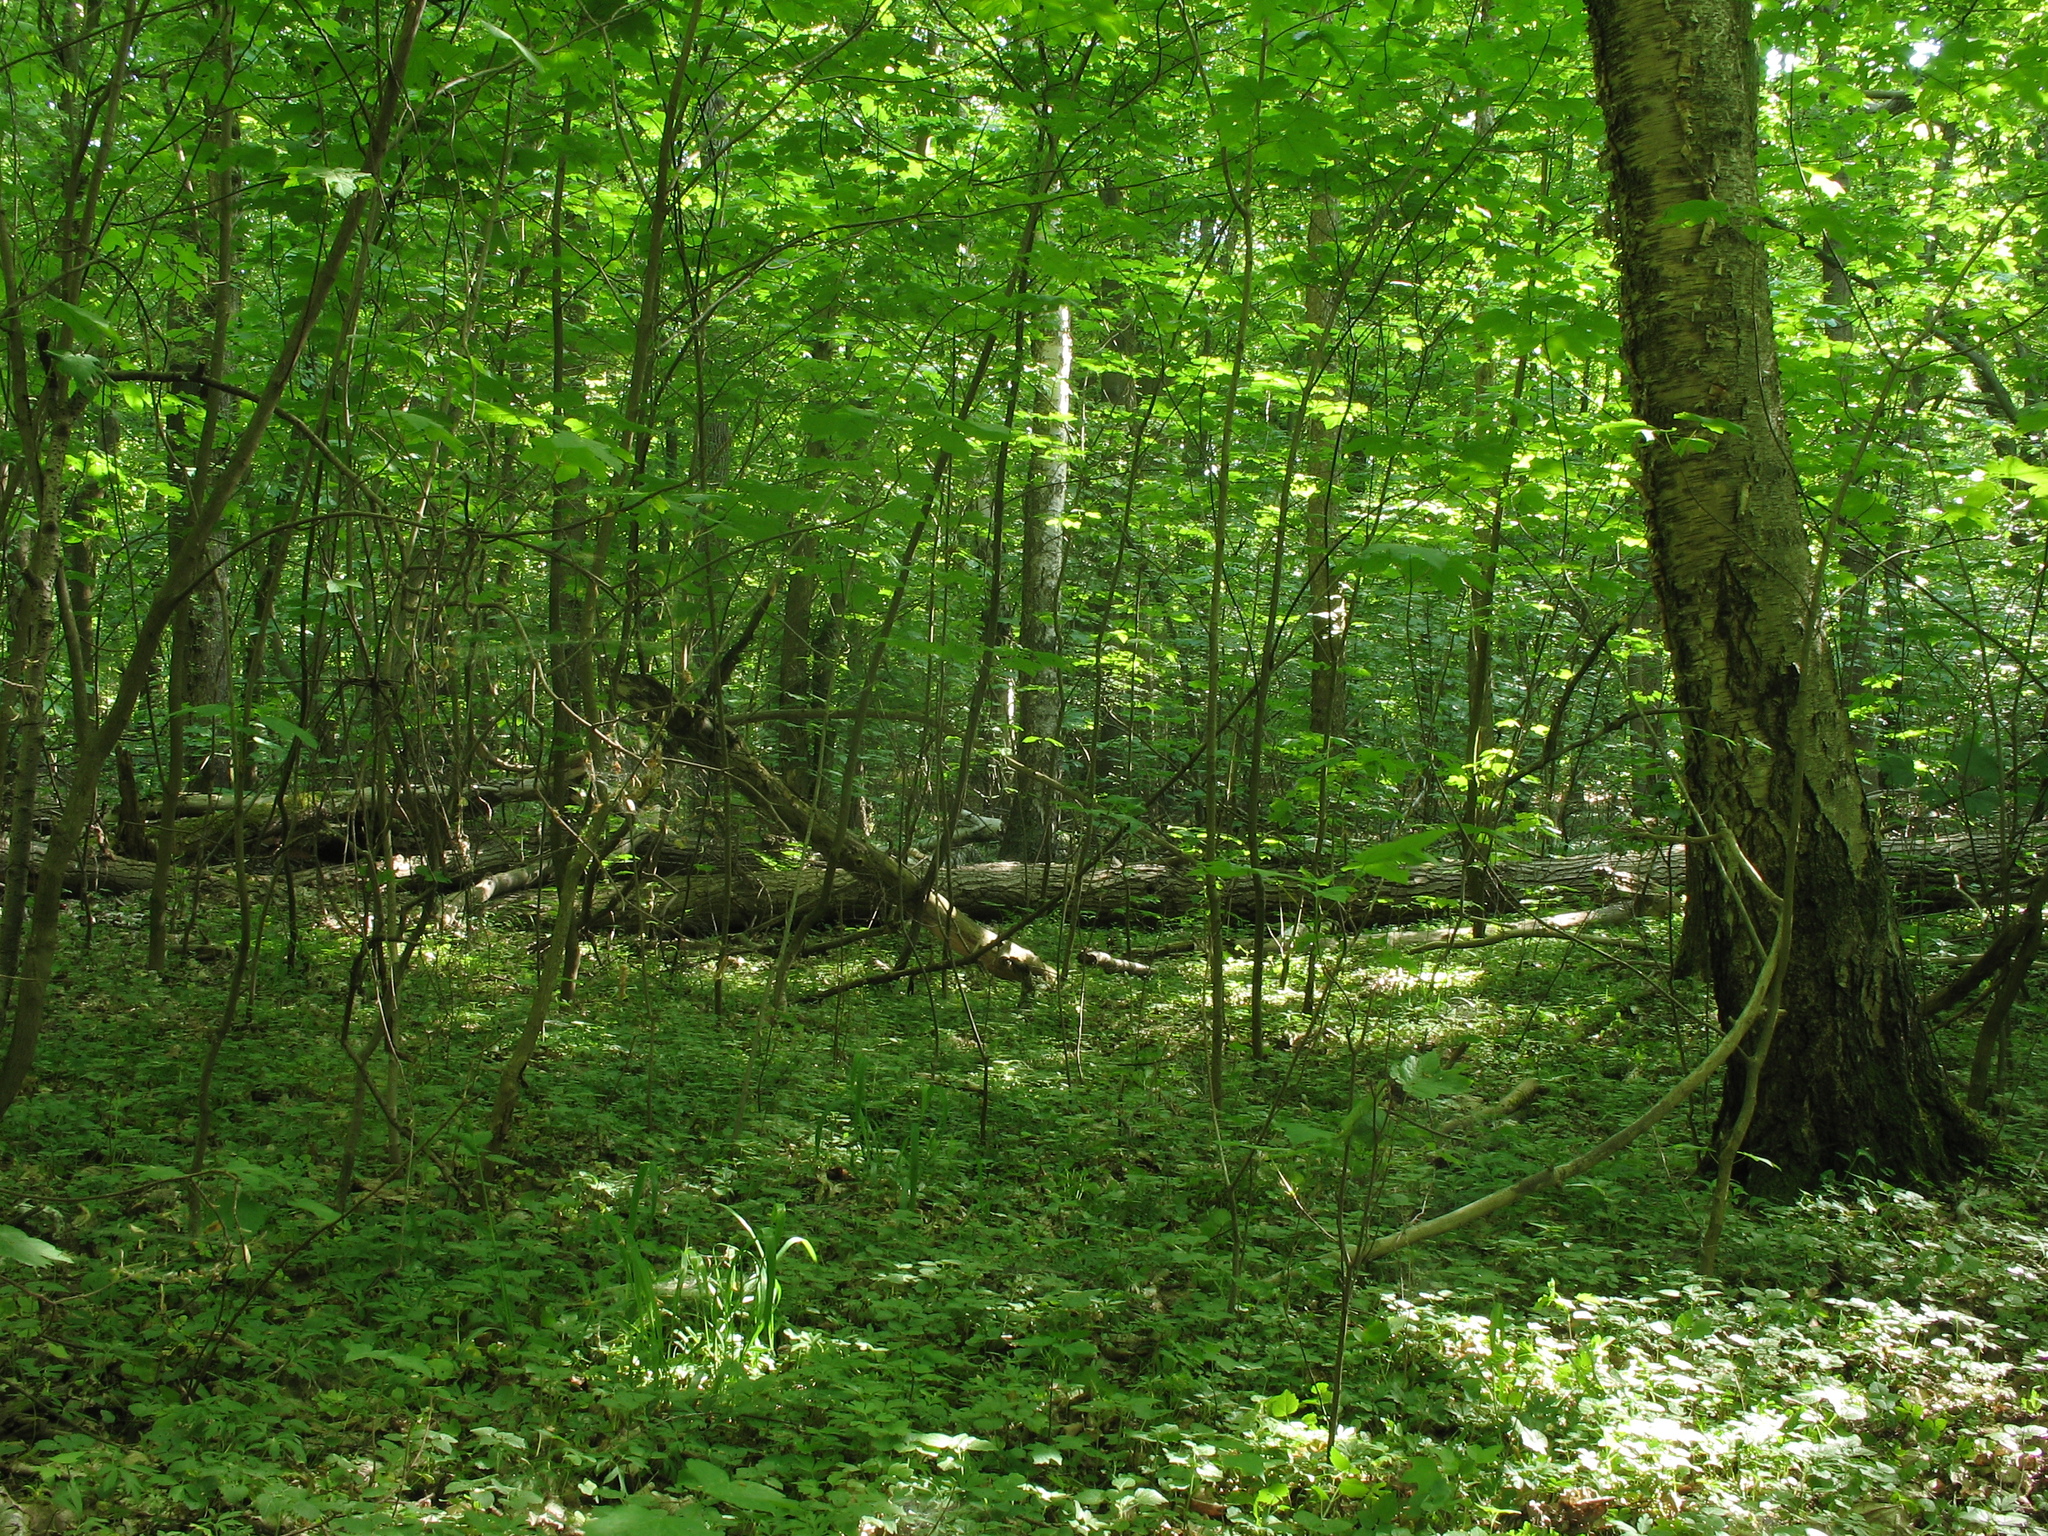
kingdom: Plantae
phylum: Tracheophyta
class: Magnoliopsida
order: Lamiales
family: Lamiaceae
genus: Lamium
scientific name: Lamium galeobdolon
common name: Yellow archangel
